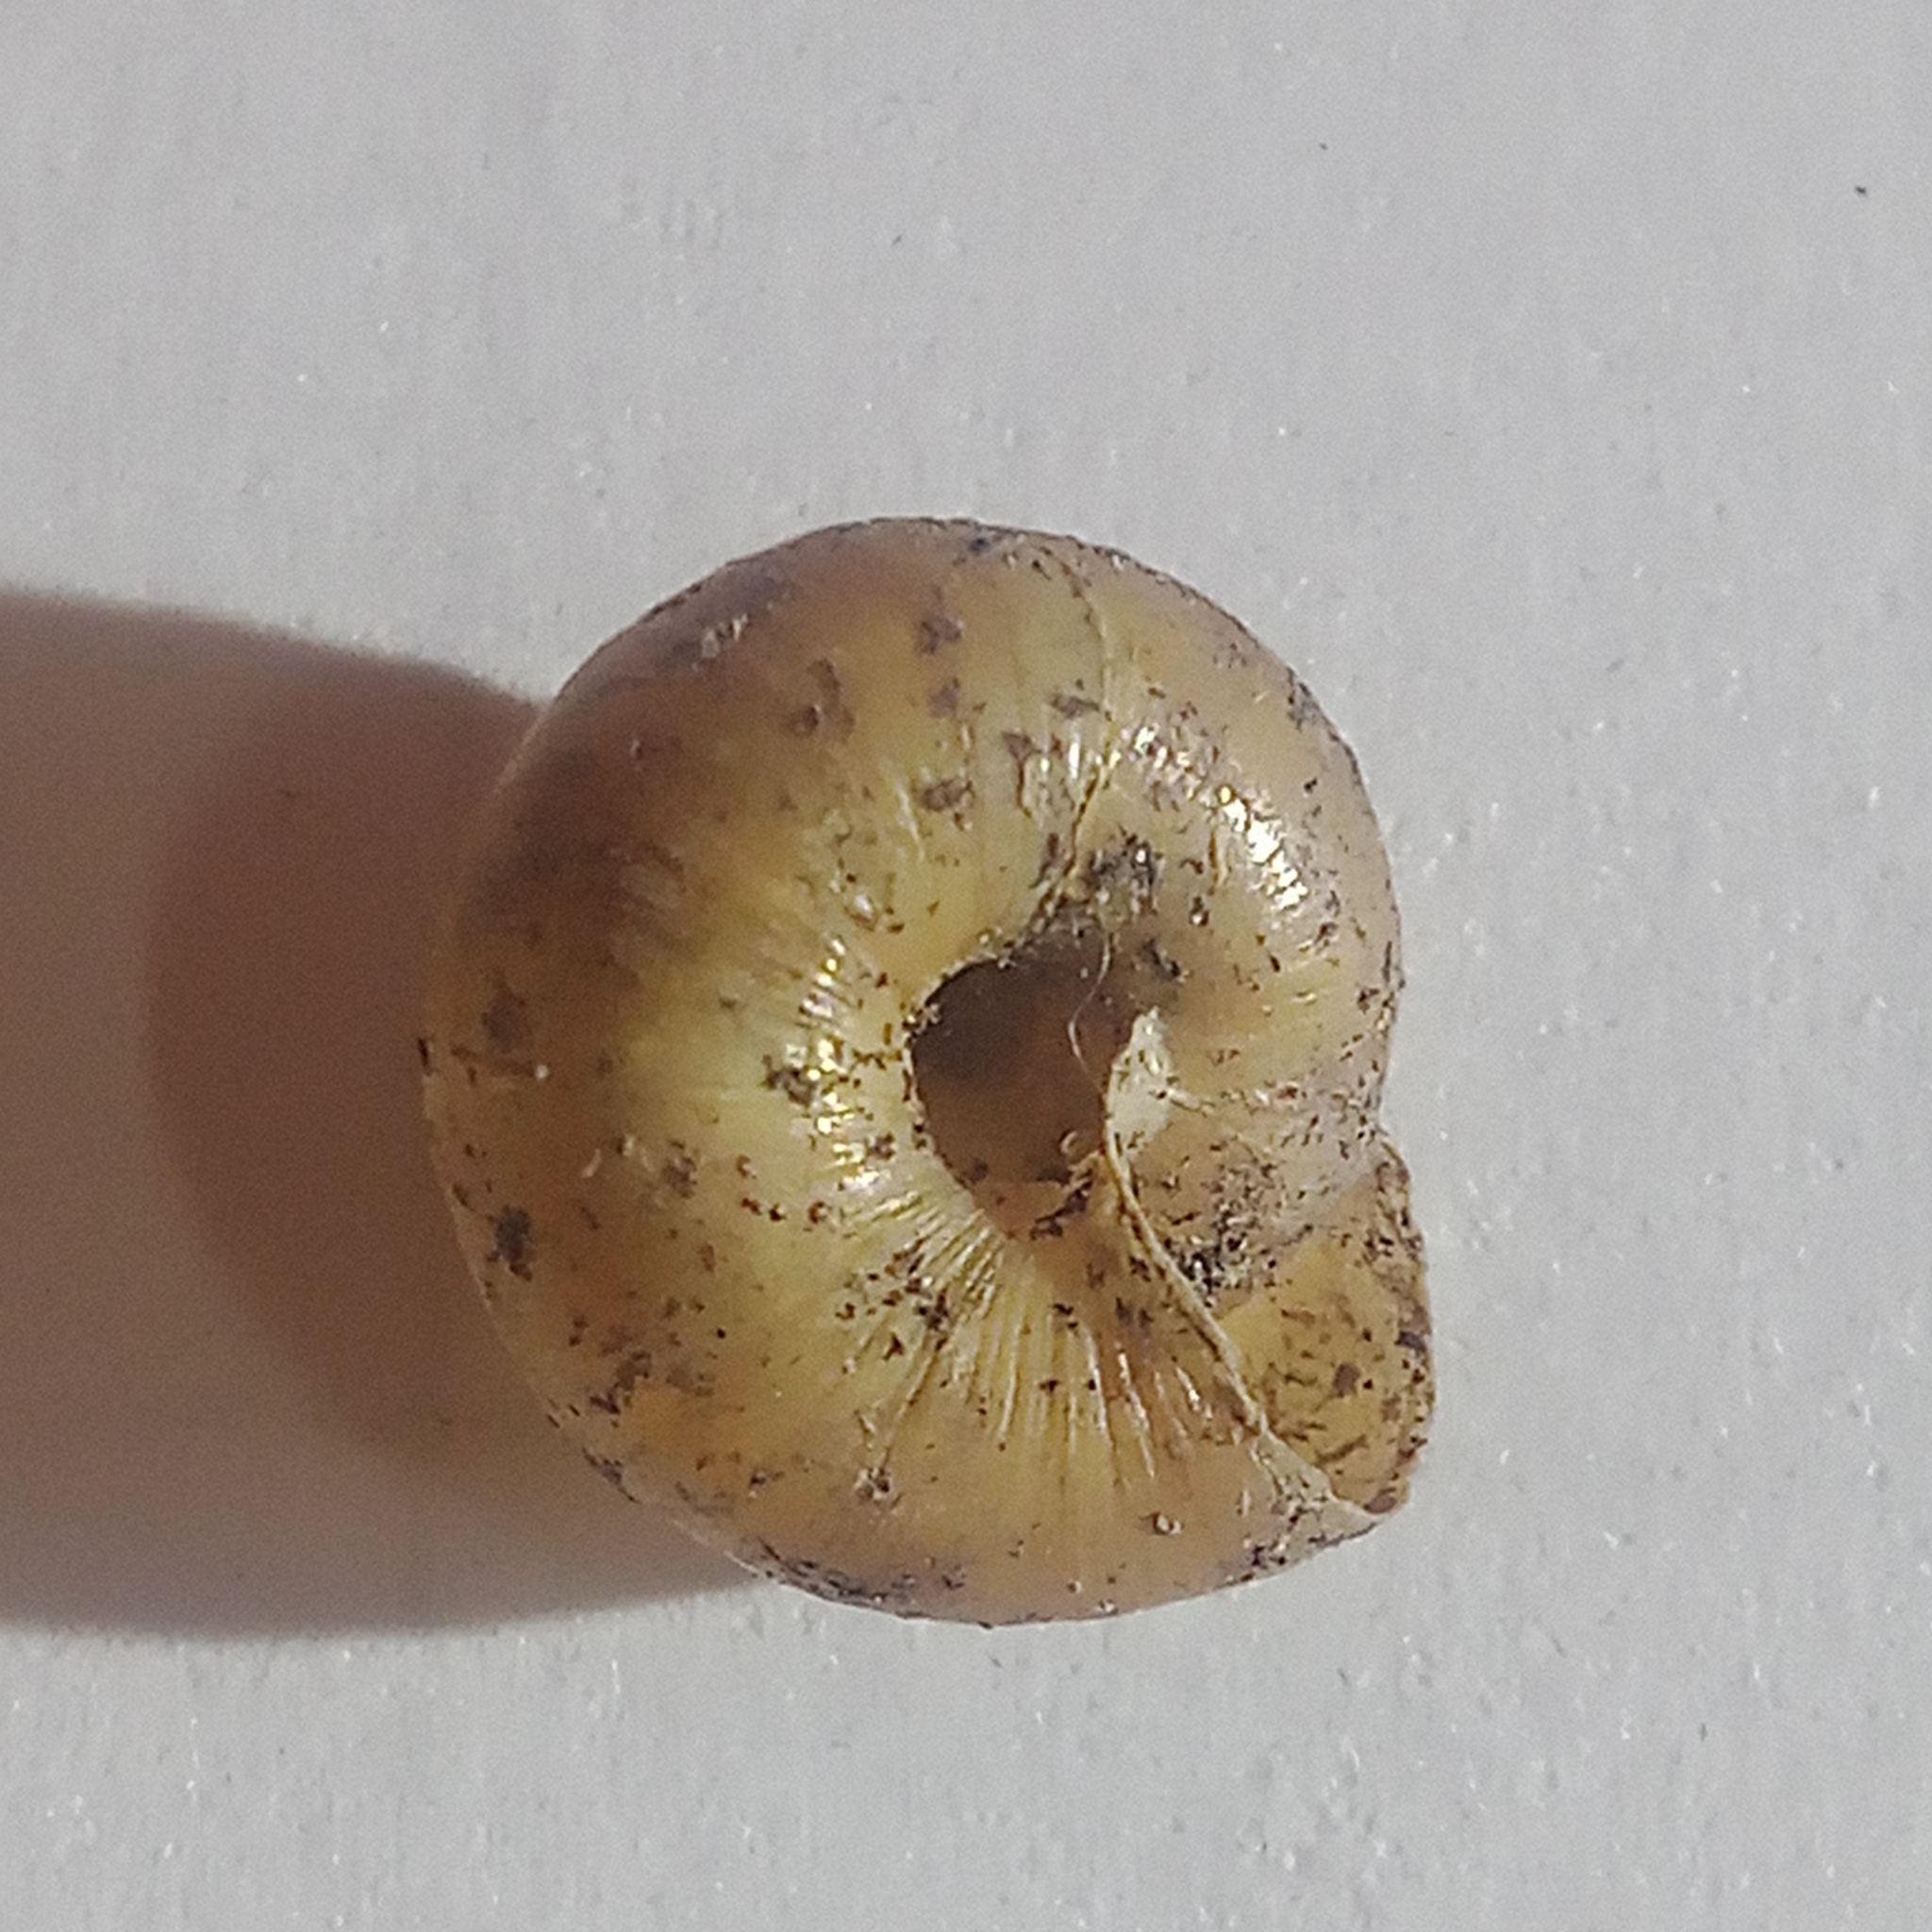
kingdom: Animalia
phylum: Mollusca
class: Gastropoda
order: Stylommatophora
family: Hygromiidae
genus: Trochulus
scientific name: Trochulus hispidus
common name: Hairy snail
